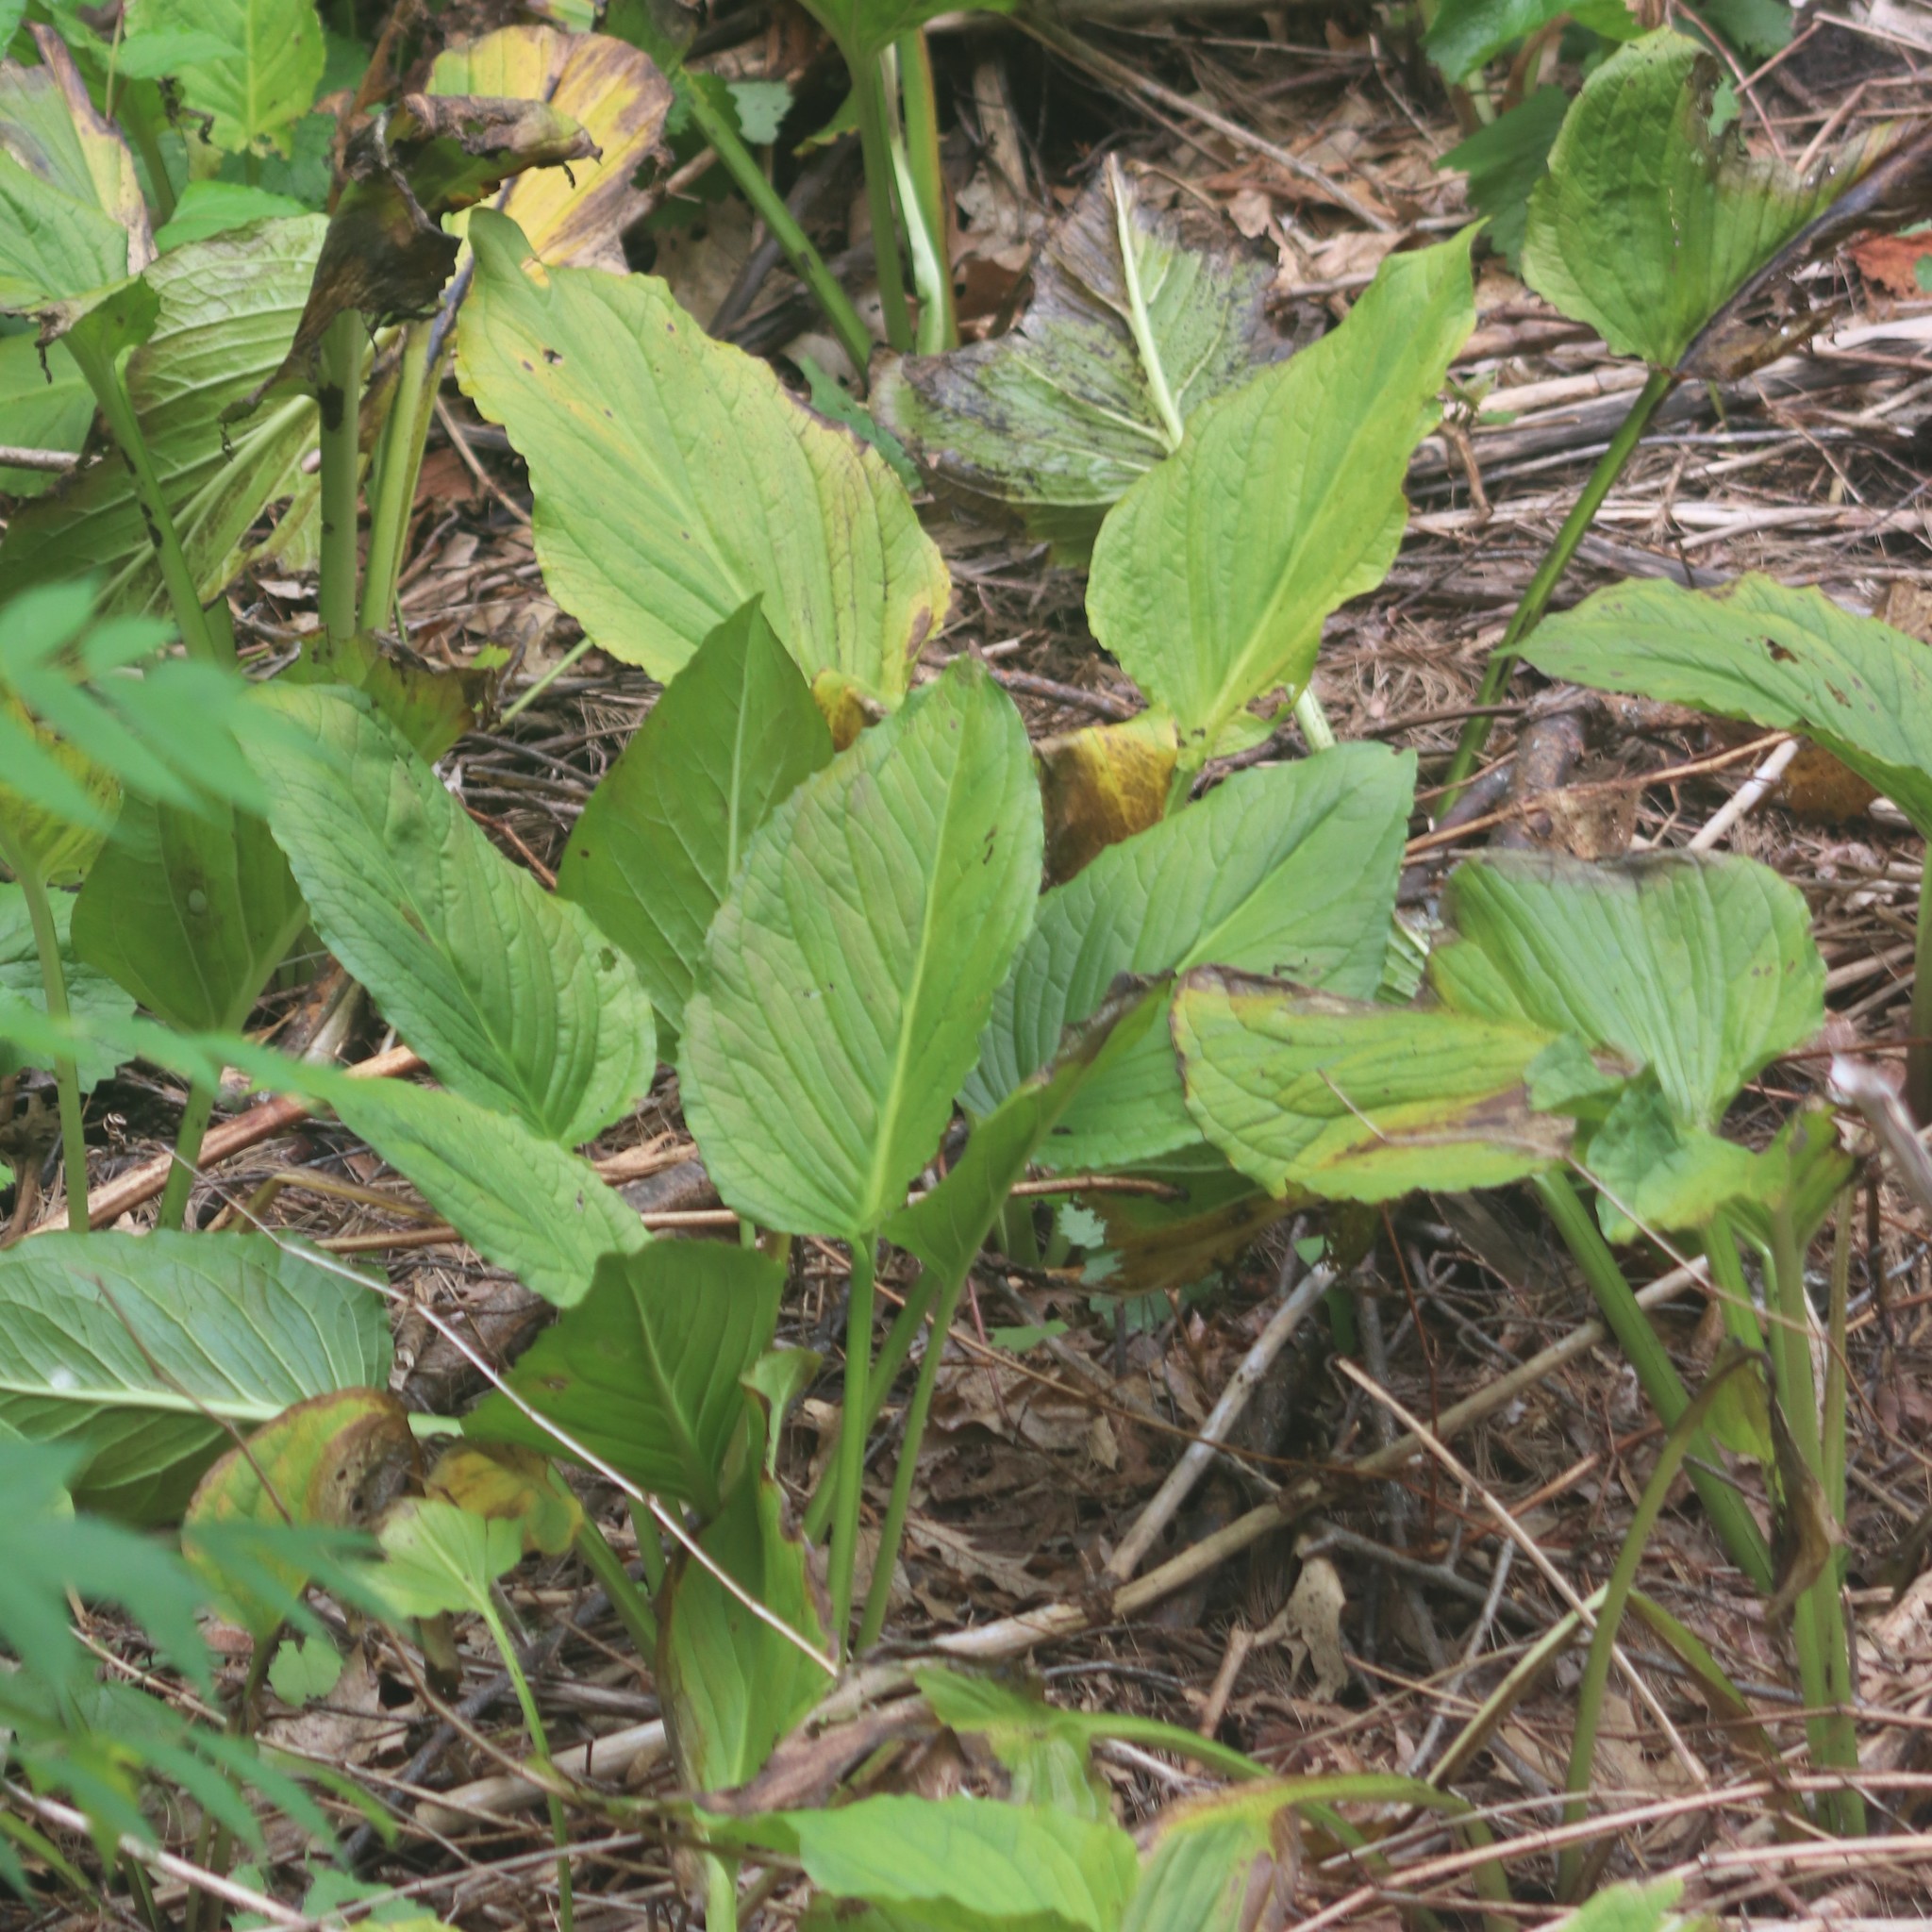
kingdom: Plantae
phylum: Tracheophyta
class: Liliopsida
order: Alismatales
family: Araceae
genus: Symplocarpus
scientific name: Symplocarpus foetidus
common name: Eastern skunk cabbage
